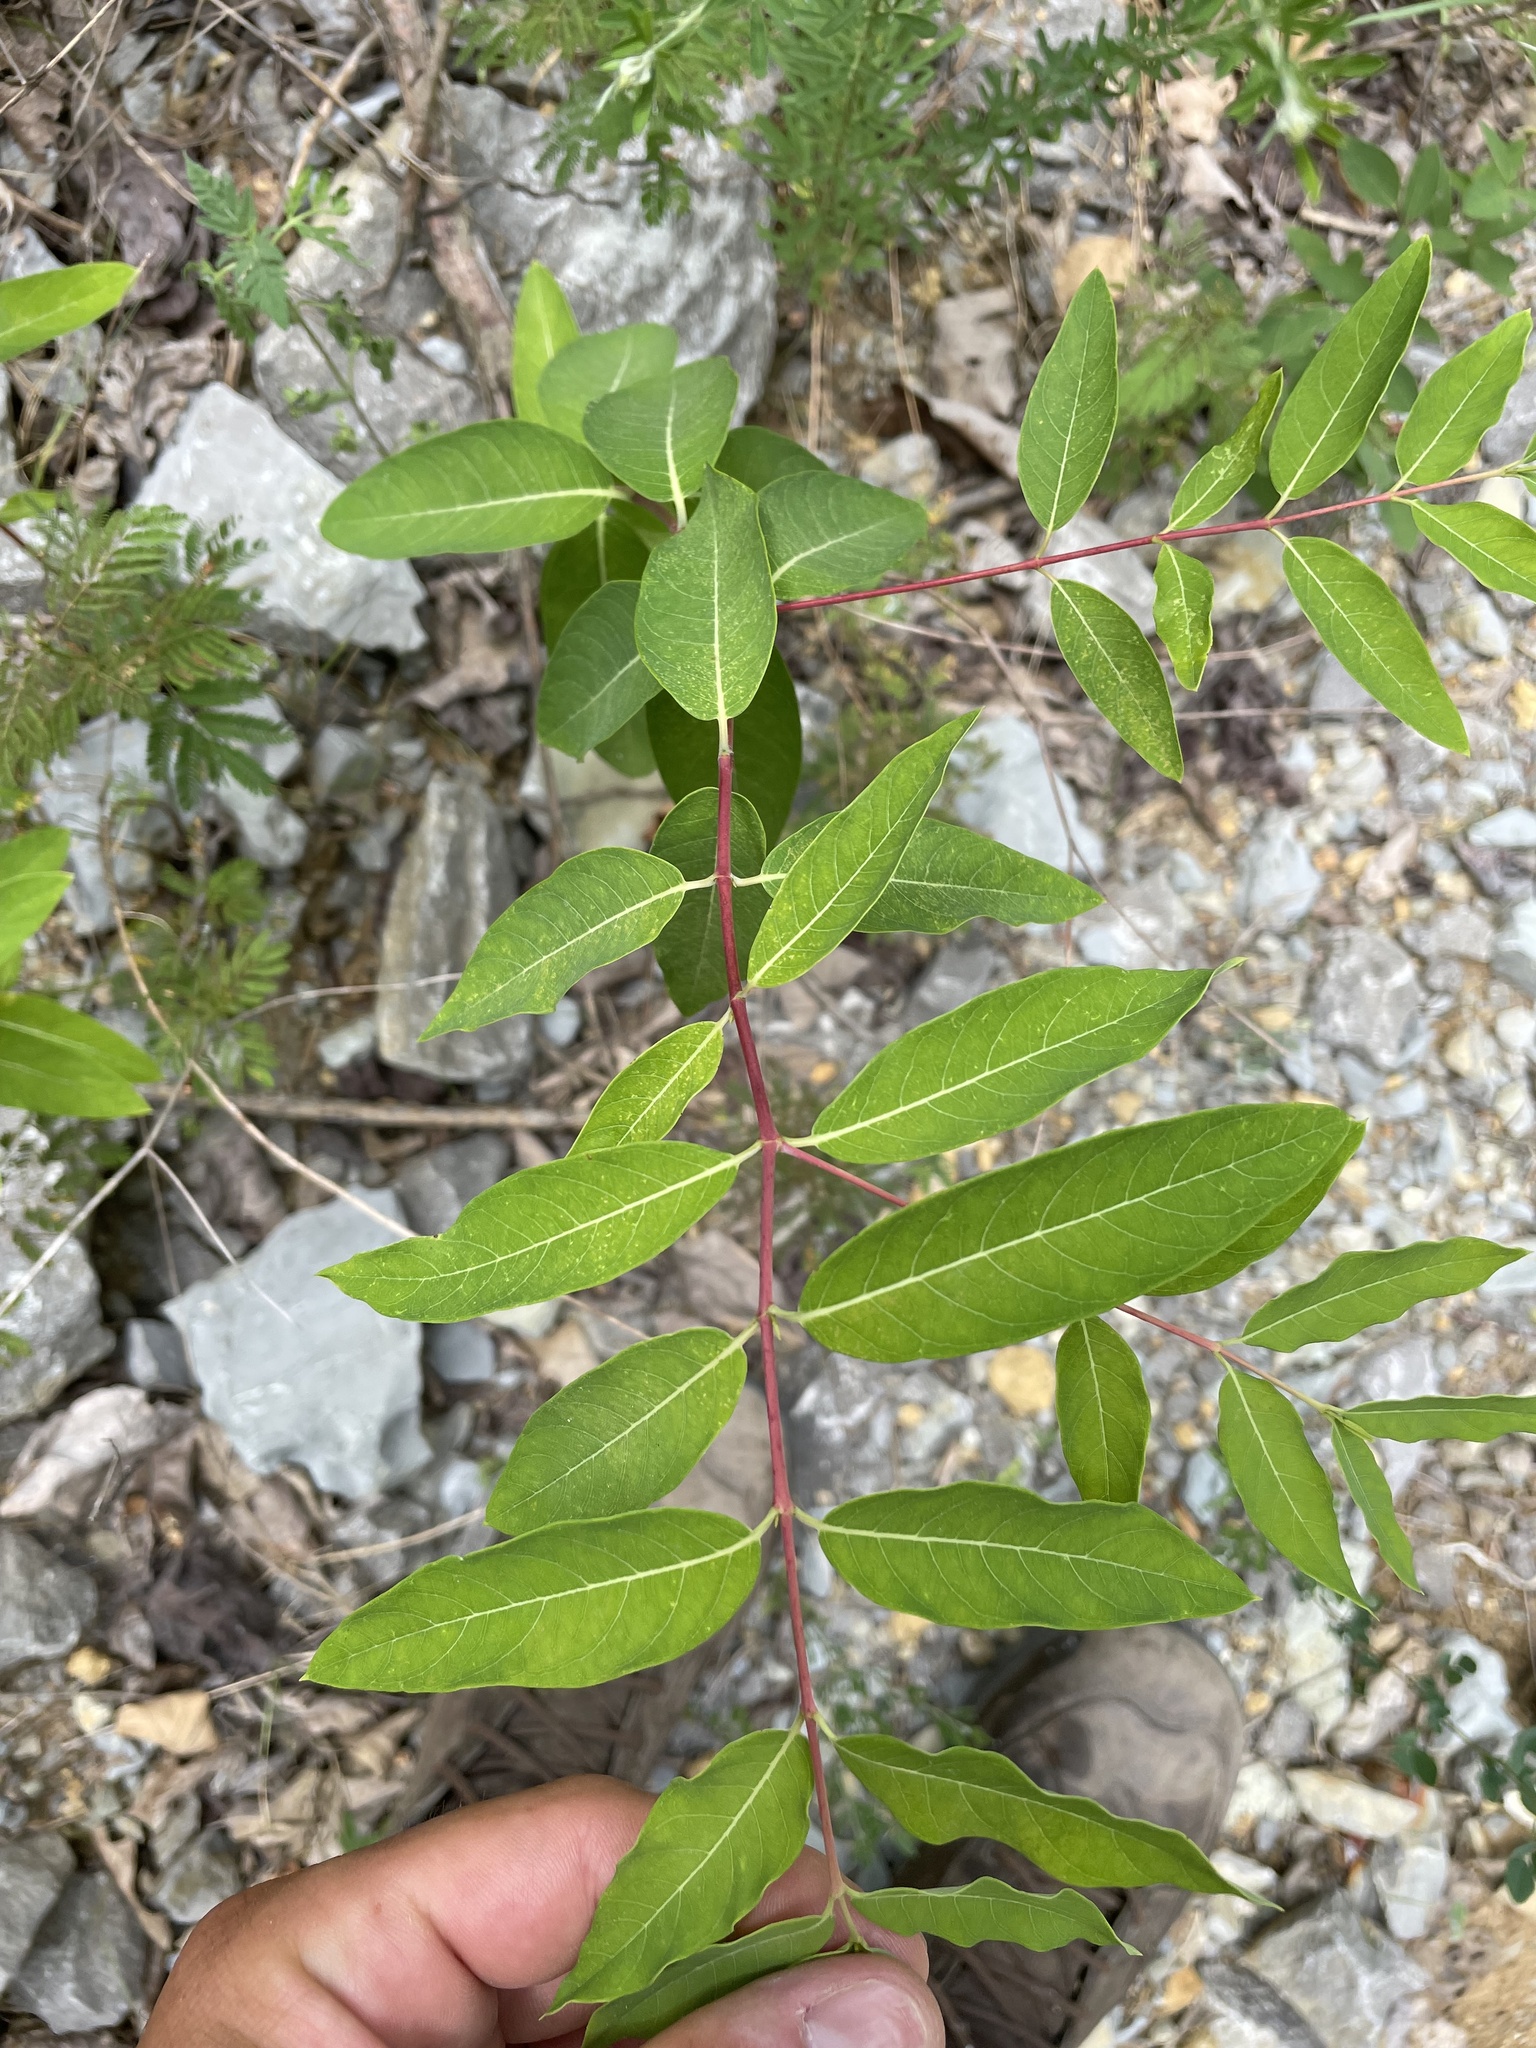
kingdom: Plantae
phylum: Tracheophyta
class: Magnoliopsida
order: Gentianales
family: Apocynaceae
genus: Apocynum
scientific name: Apocynum cannabinum
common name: Hemp dogbane
